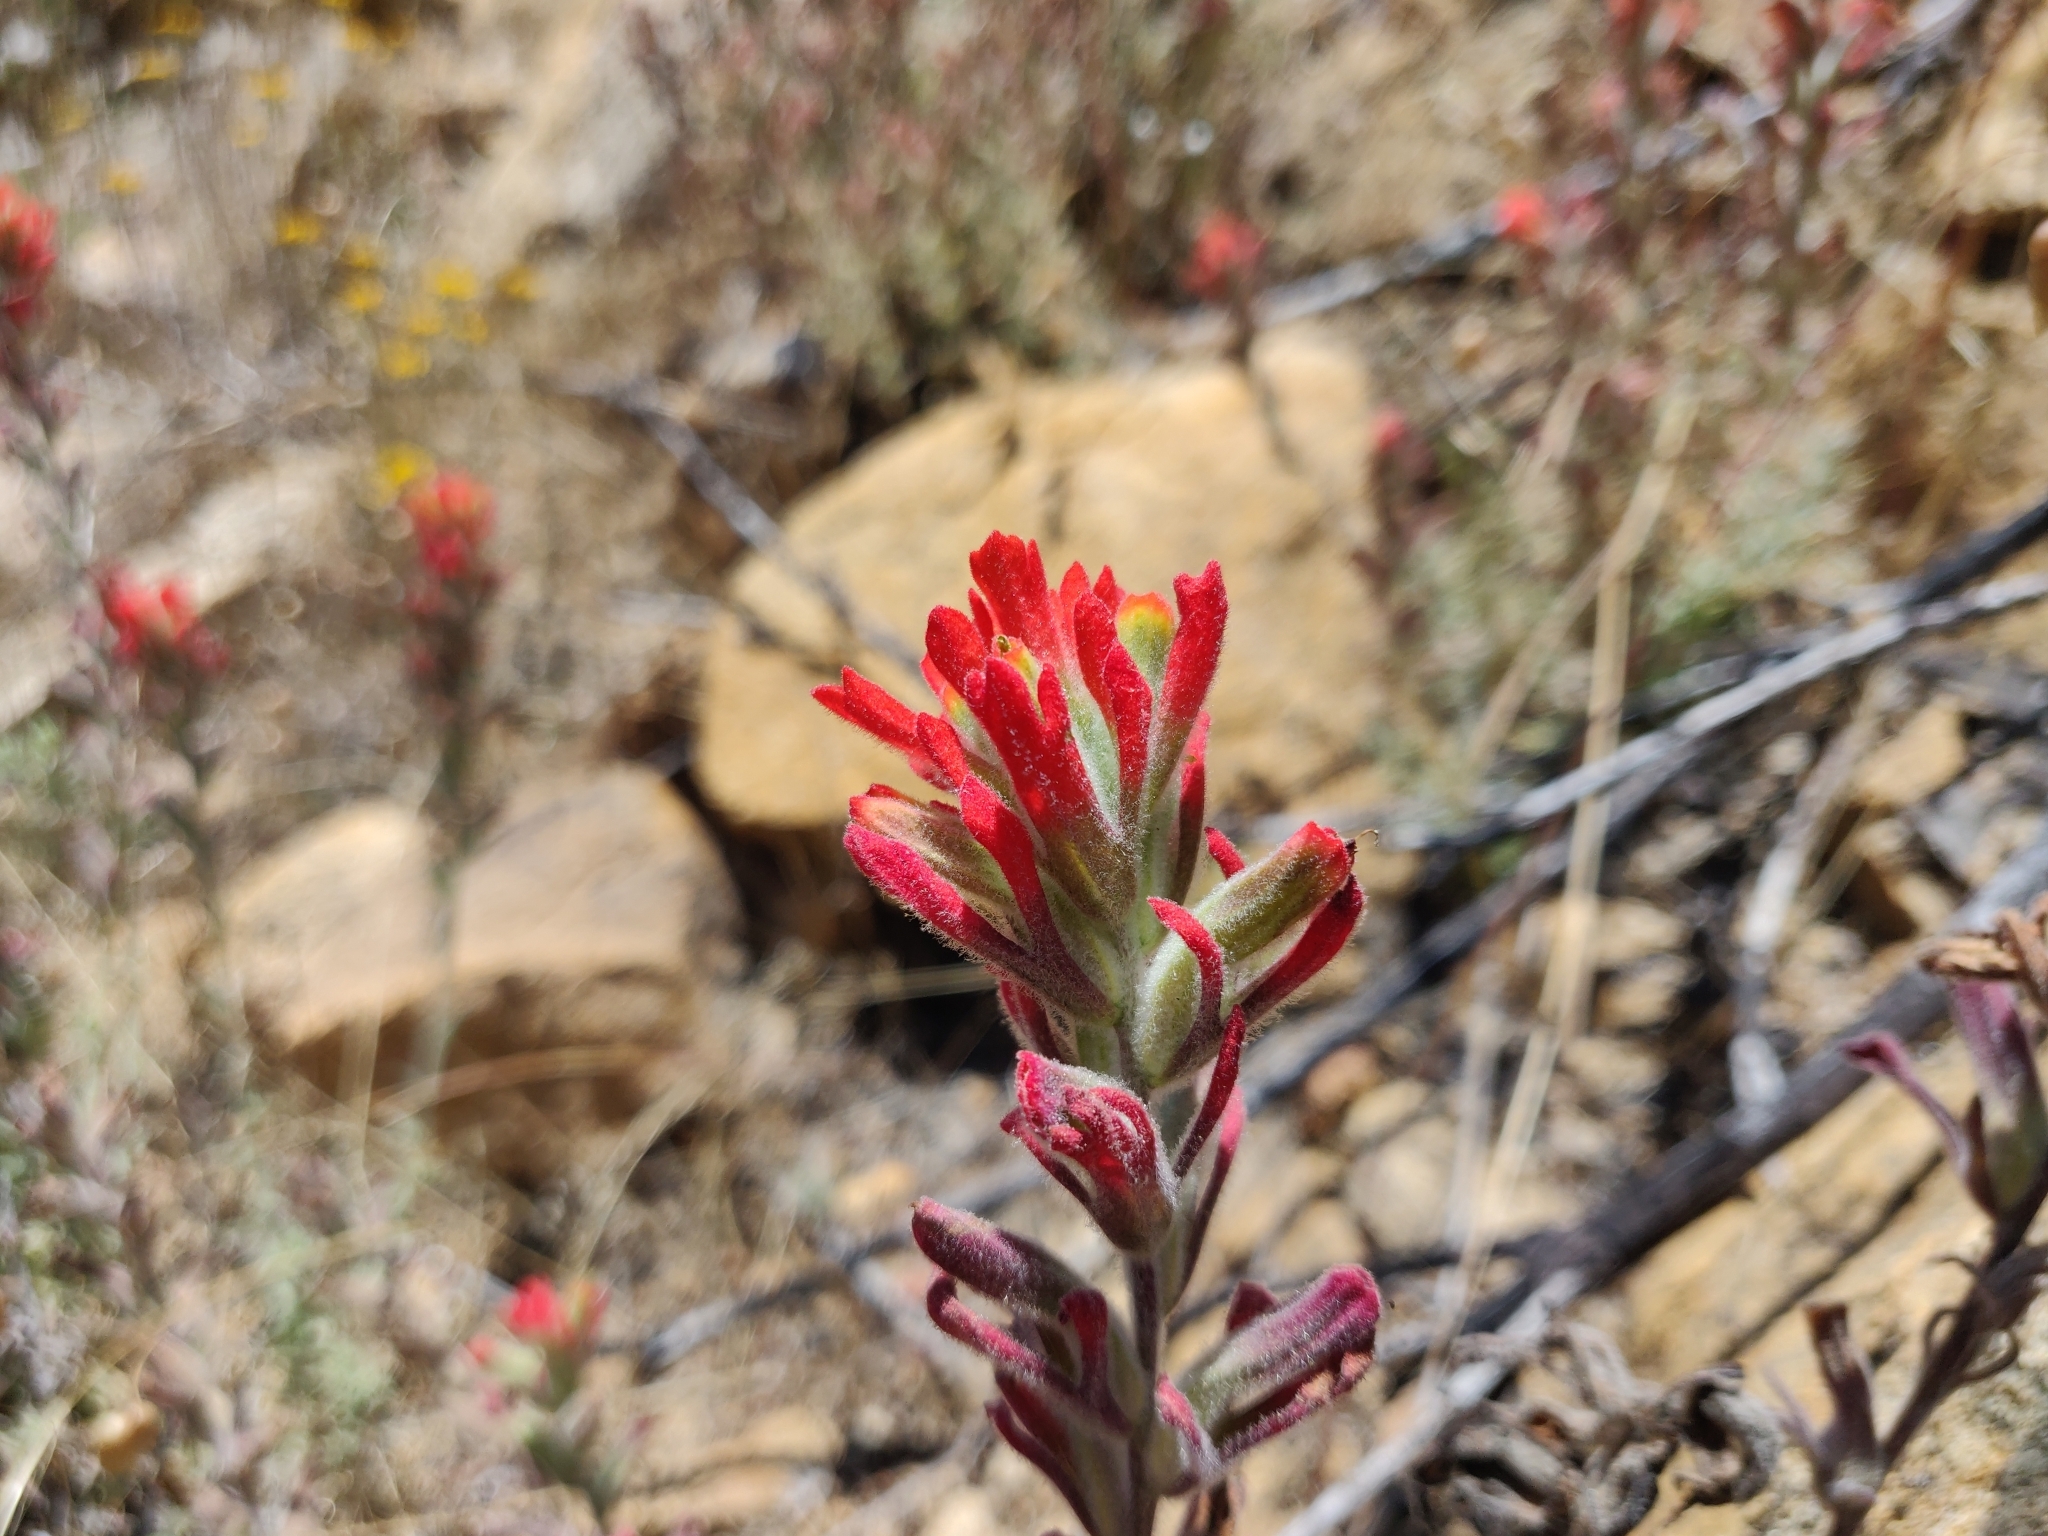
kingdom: Plantae
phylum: Tracheophyta
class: Magnoliopsida
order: Lamiales
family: Orobanchaceae
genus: Castilleja
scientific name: Castilleja foliolosa
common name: Woolly indian paintbrush
